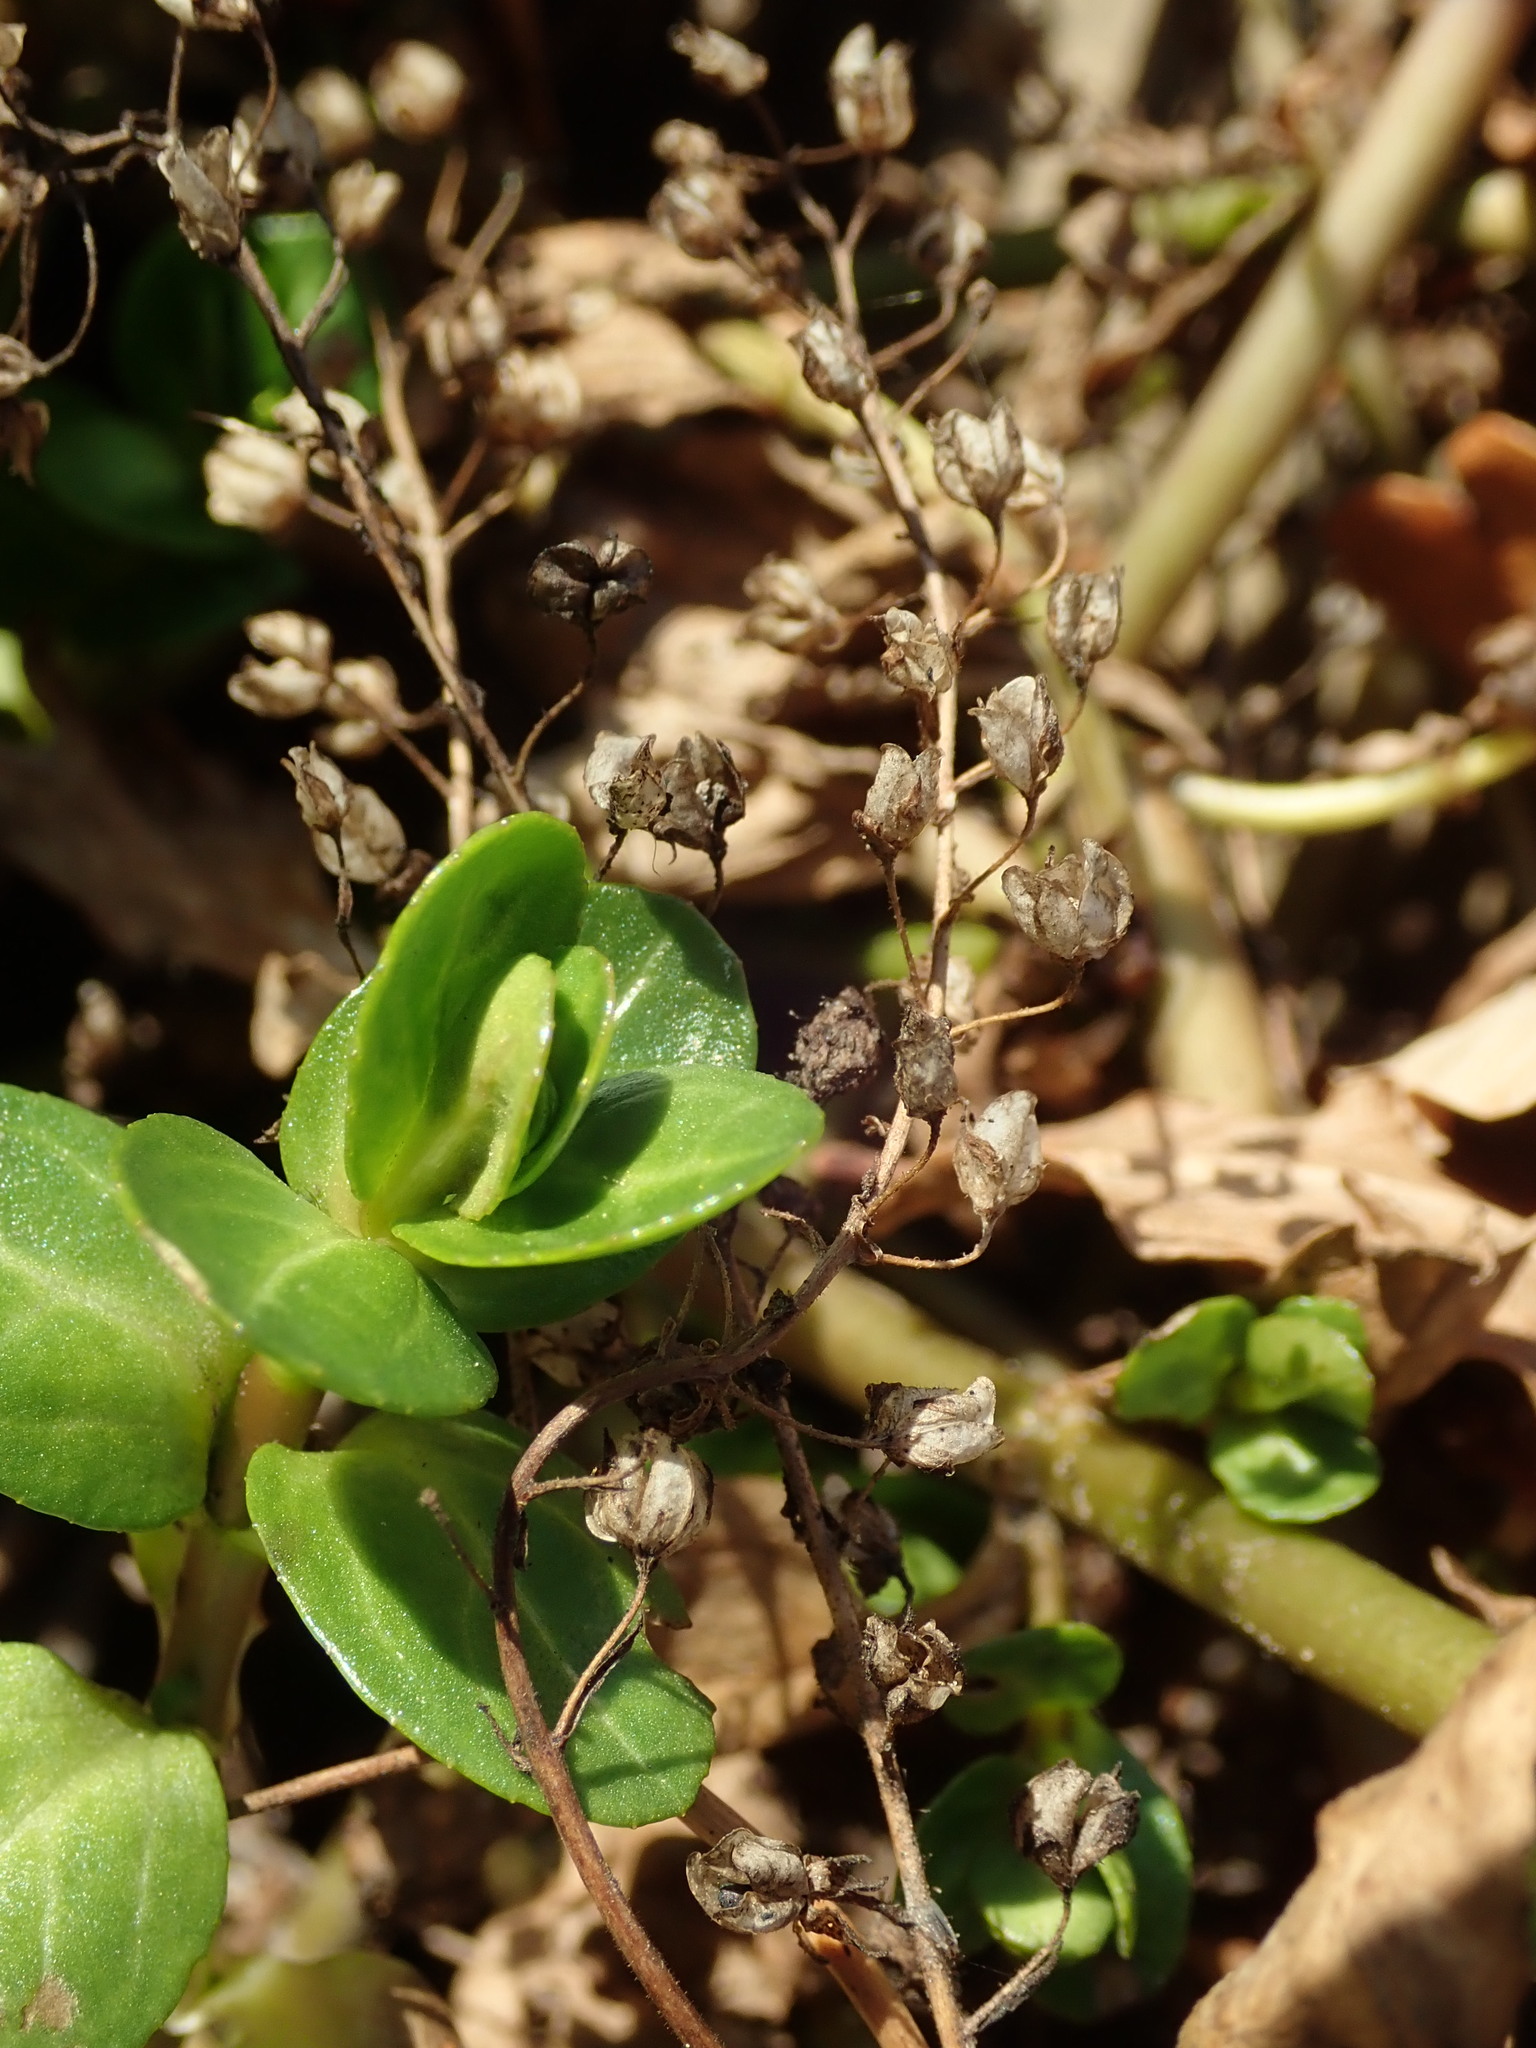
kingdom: Plantae
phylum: Tracheophyta
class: Magnoliopsida
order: Lamiales
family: Plantaginaceae
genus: Veronica
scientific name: Veronica beccabunga
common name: Brooklime
